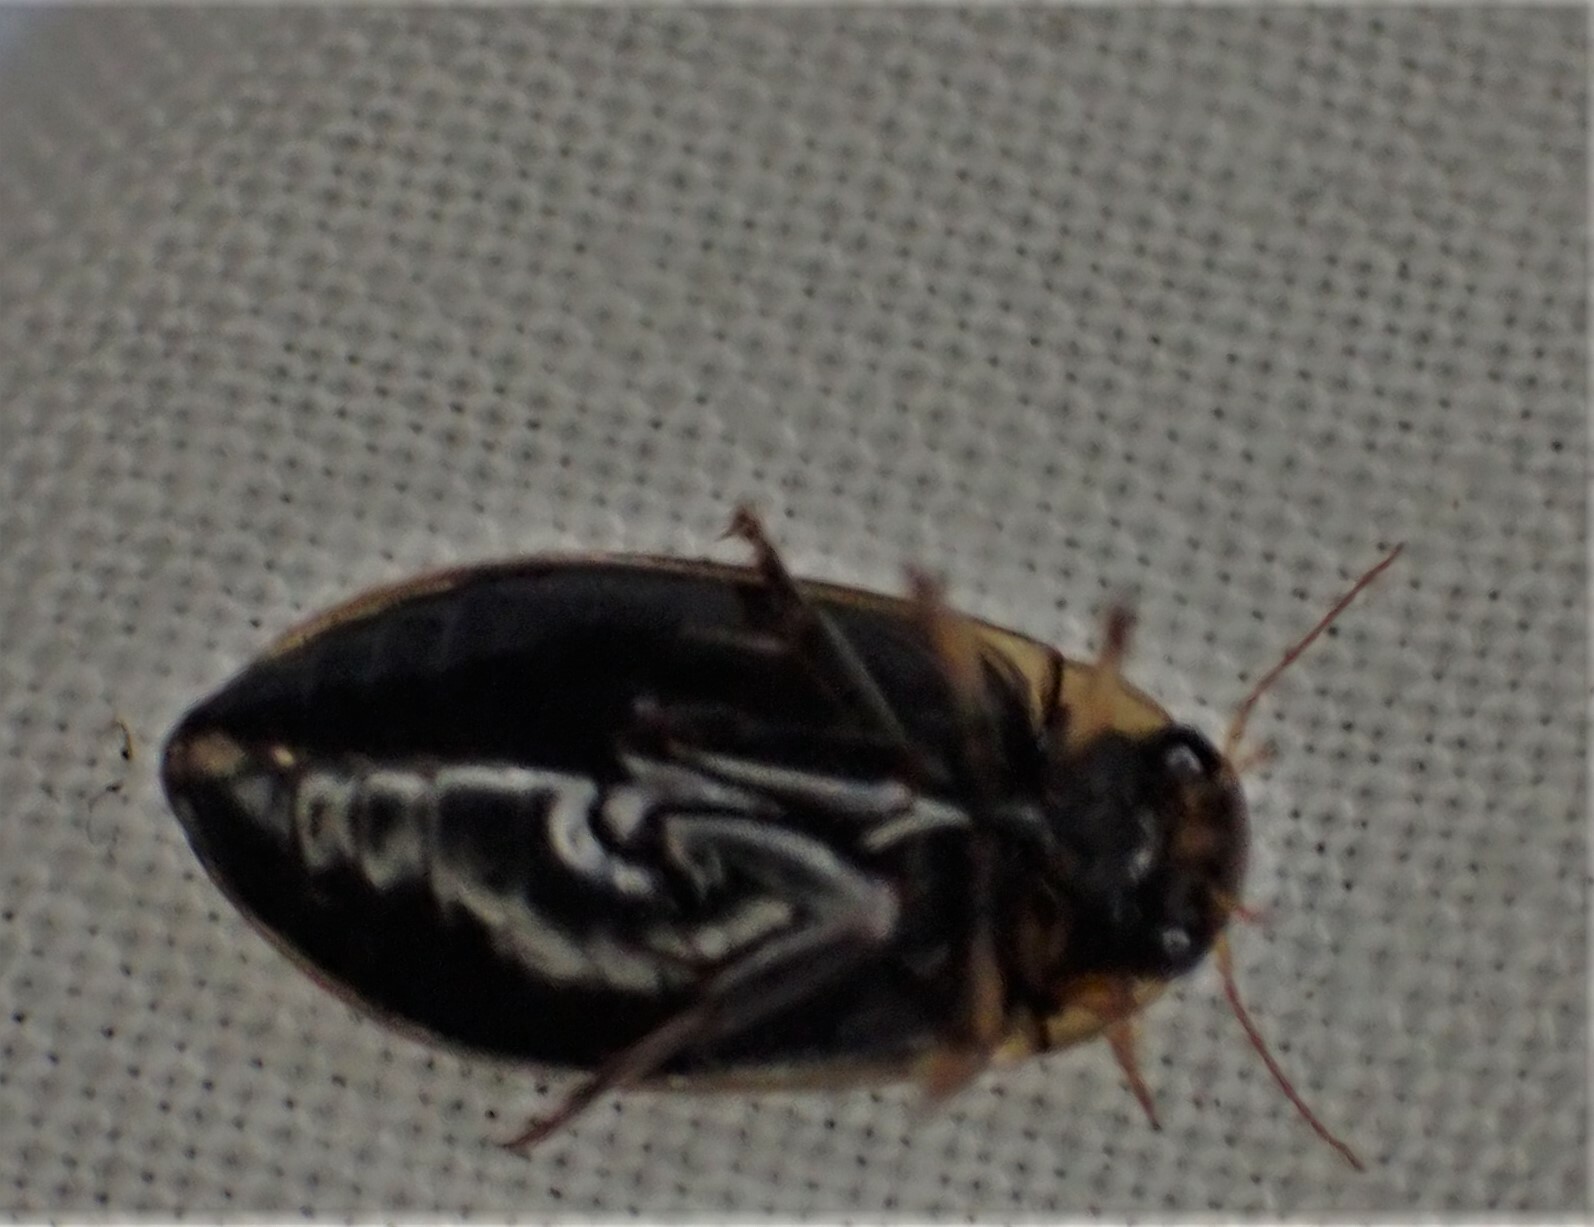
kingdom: Animalia
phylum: Arthropoda
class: Insecta
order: Coleoptera
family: Dytiscidae
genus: Rhantus
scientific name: Rhantus suturalis
